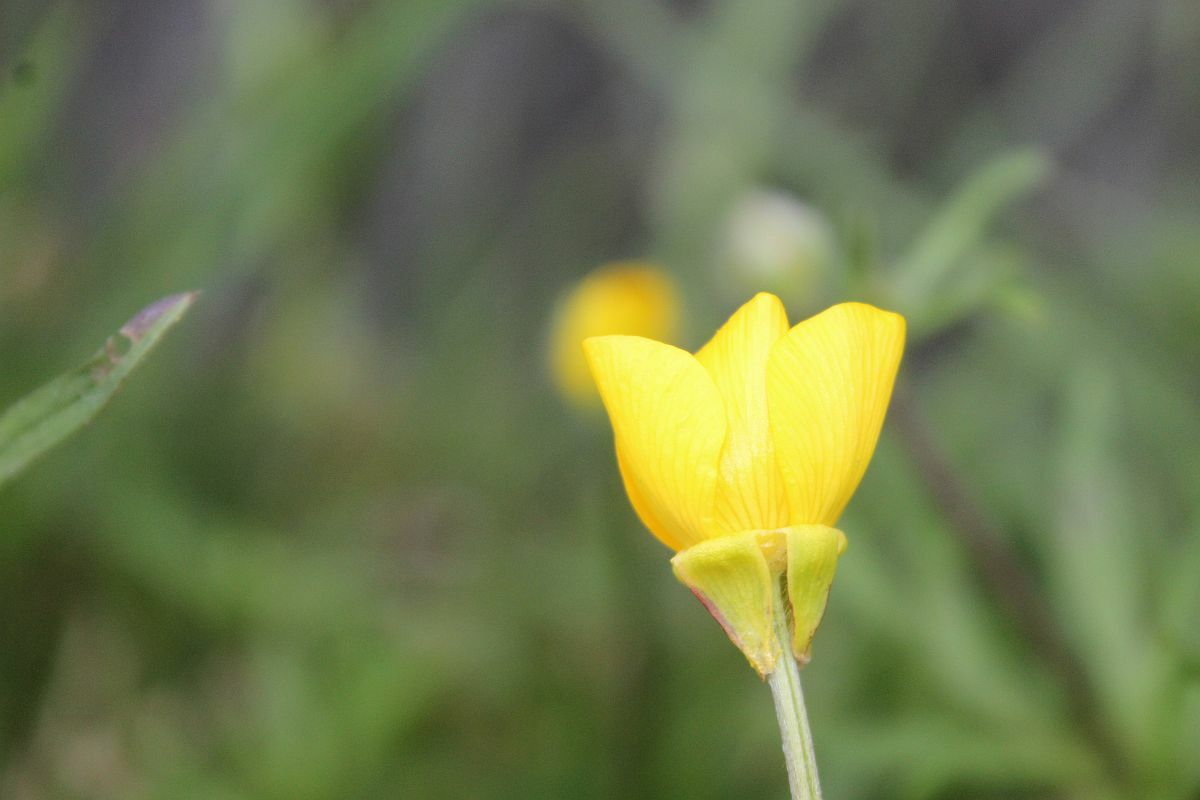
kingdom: Plantae
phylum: Tracheophyta
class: Magnoliopsida
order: Ranunculales
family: Ranunculaceae
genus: Ranunculus
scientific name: Ranunculus bulbosus
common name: Bulbous buttercup
